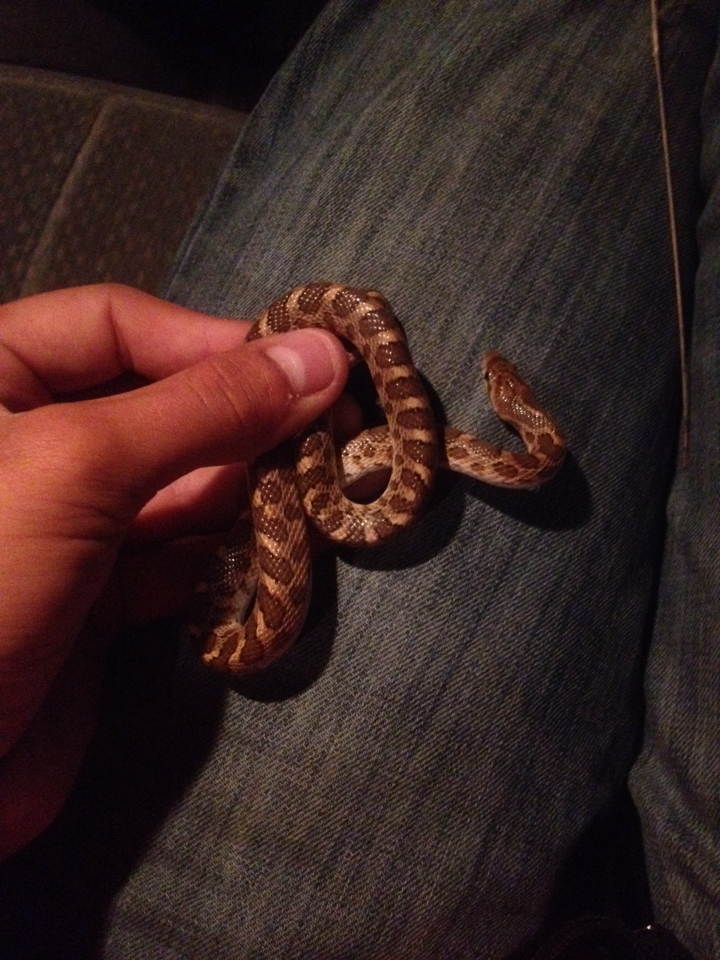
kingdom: Animalia
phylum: Chordata
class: Squamata
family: Colubridae
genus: Arizona
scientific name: Arizona elegans
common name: Glossy snake
